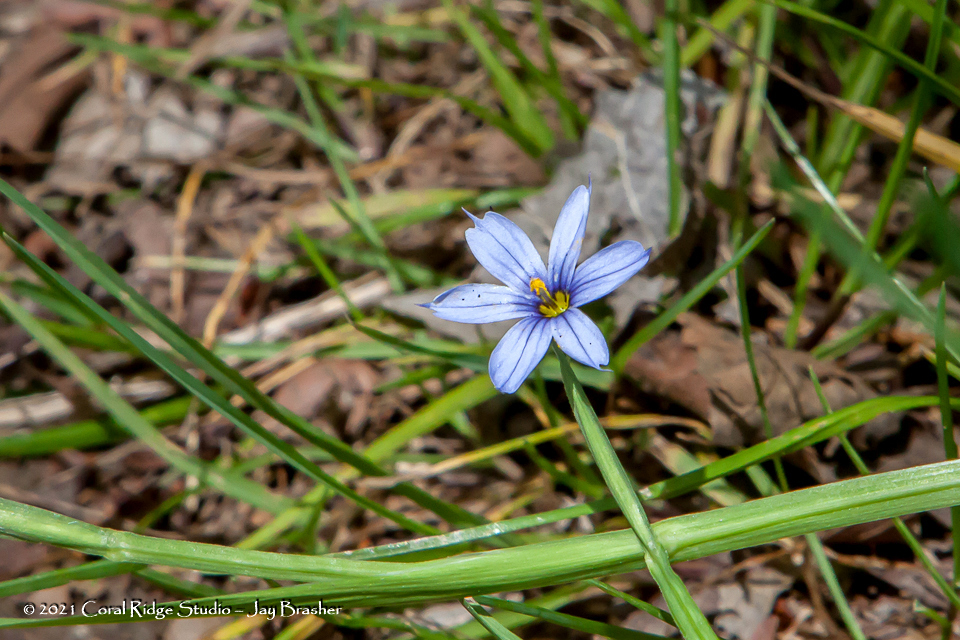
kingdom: Plantae
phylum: Tracheophyta
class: Liliopsida
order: Asparagales
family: Iridaceae
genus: Sisyrinchium
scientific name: Sisyrinchium angustifolium
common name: Narrow-leaf blue-eyed-grass
